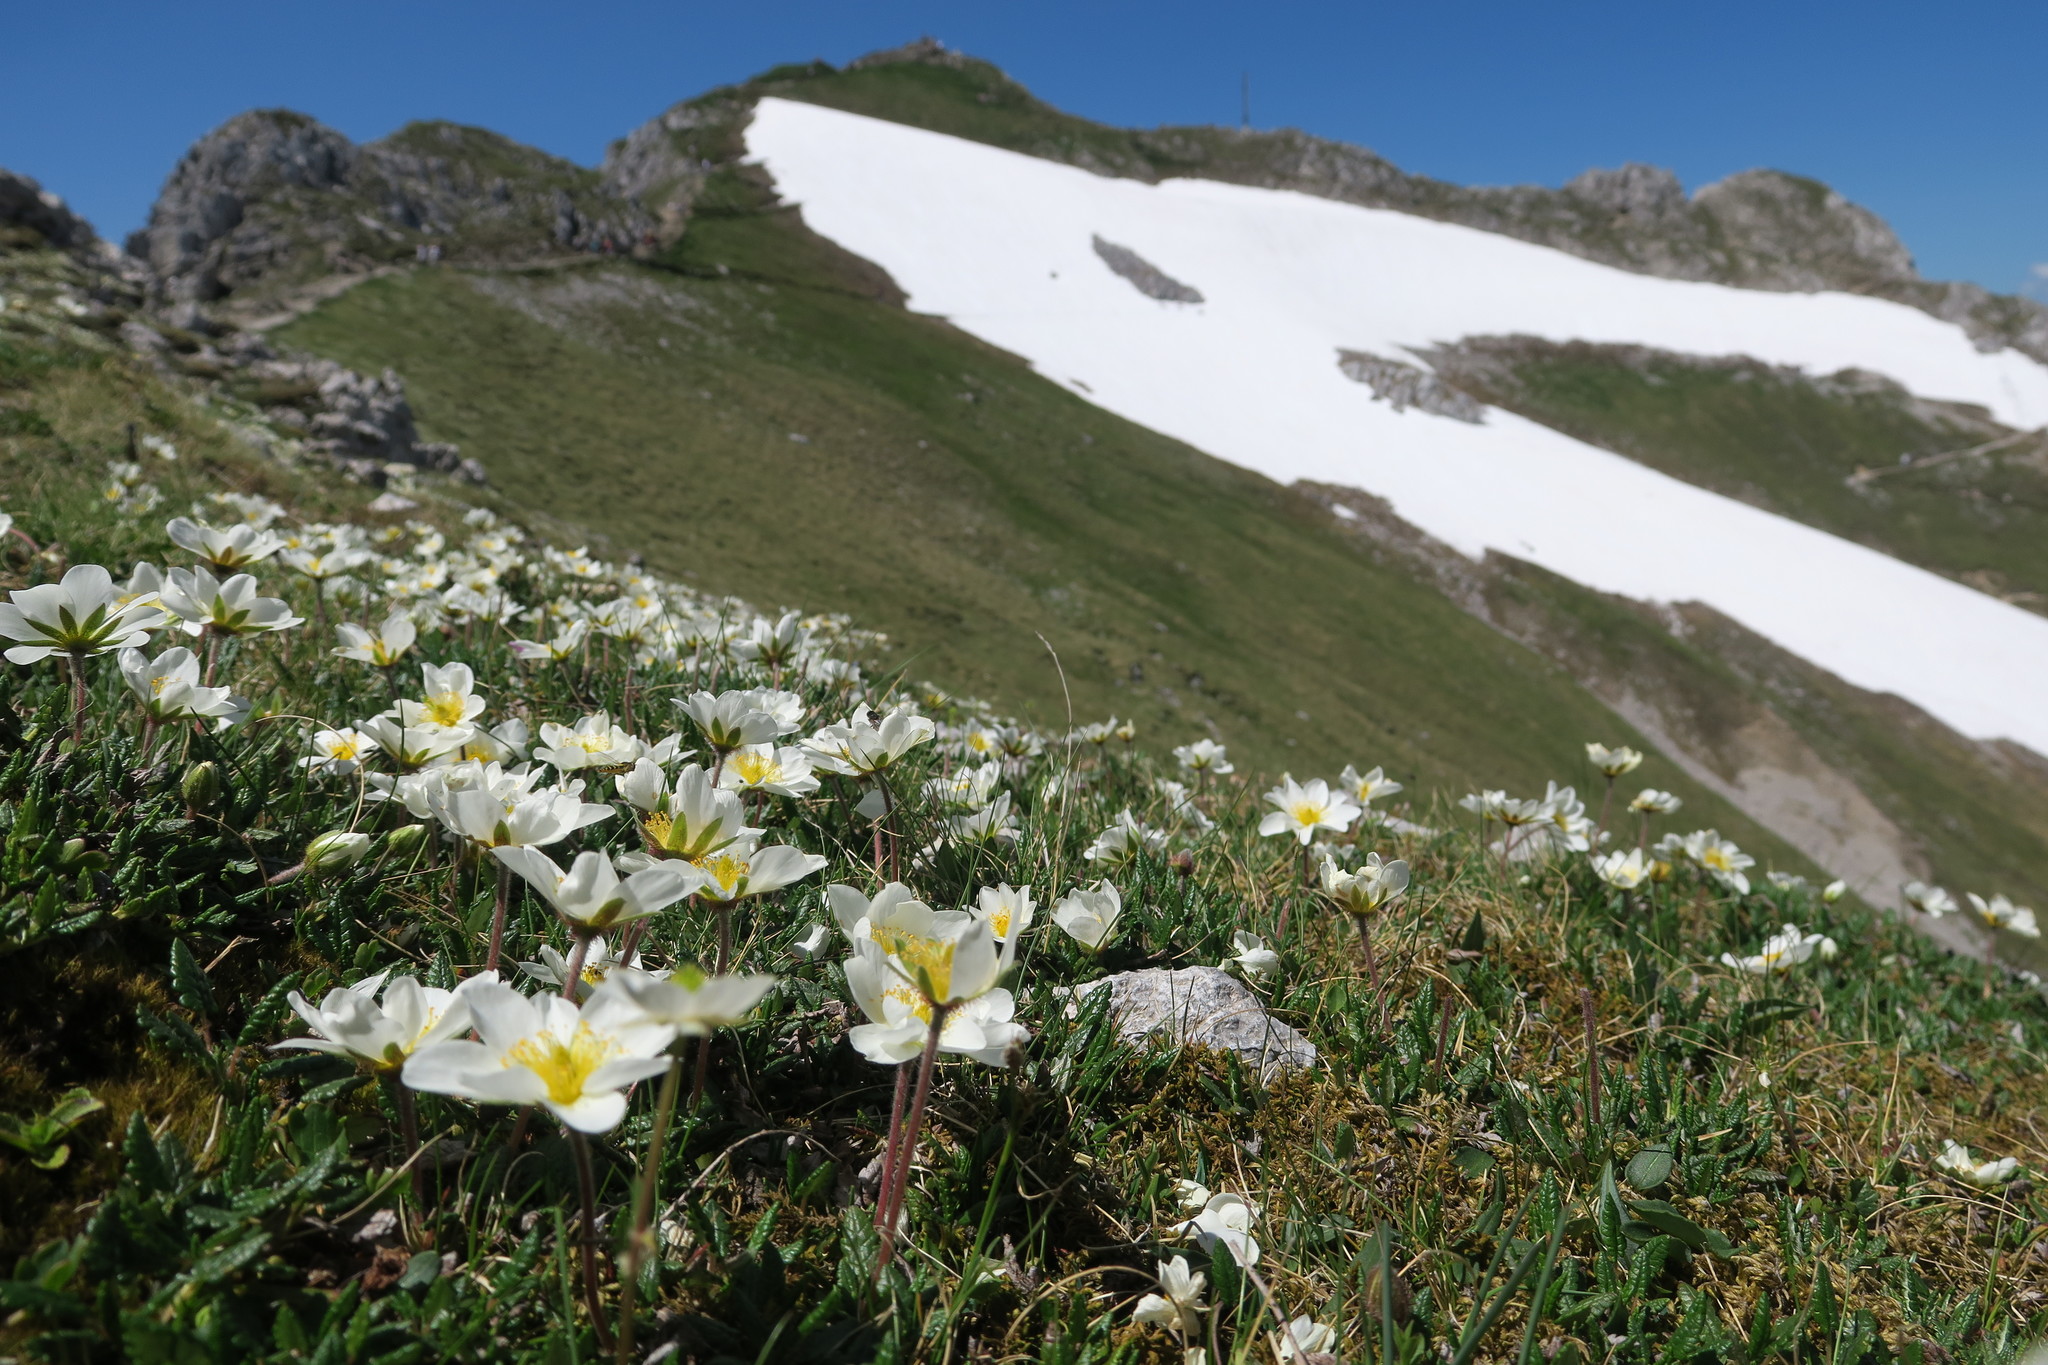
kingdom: Plantae
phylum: Tracheophyta
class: Magnoliopsida
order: Rosales
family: Rosaceae
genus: Dryas
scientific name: Dryas octopetala
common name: Eight-petal mountain-avens
